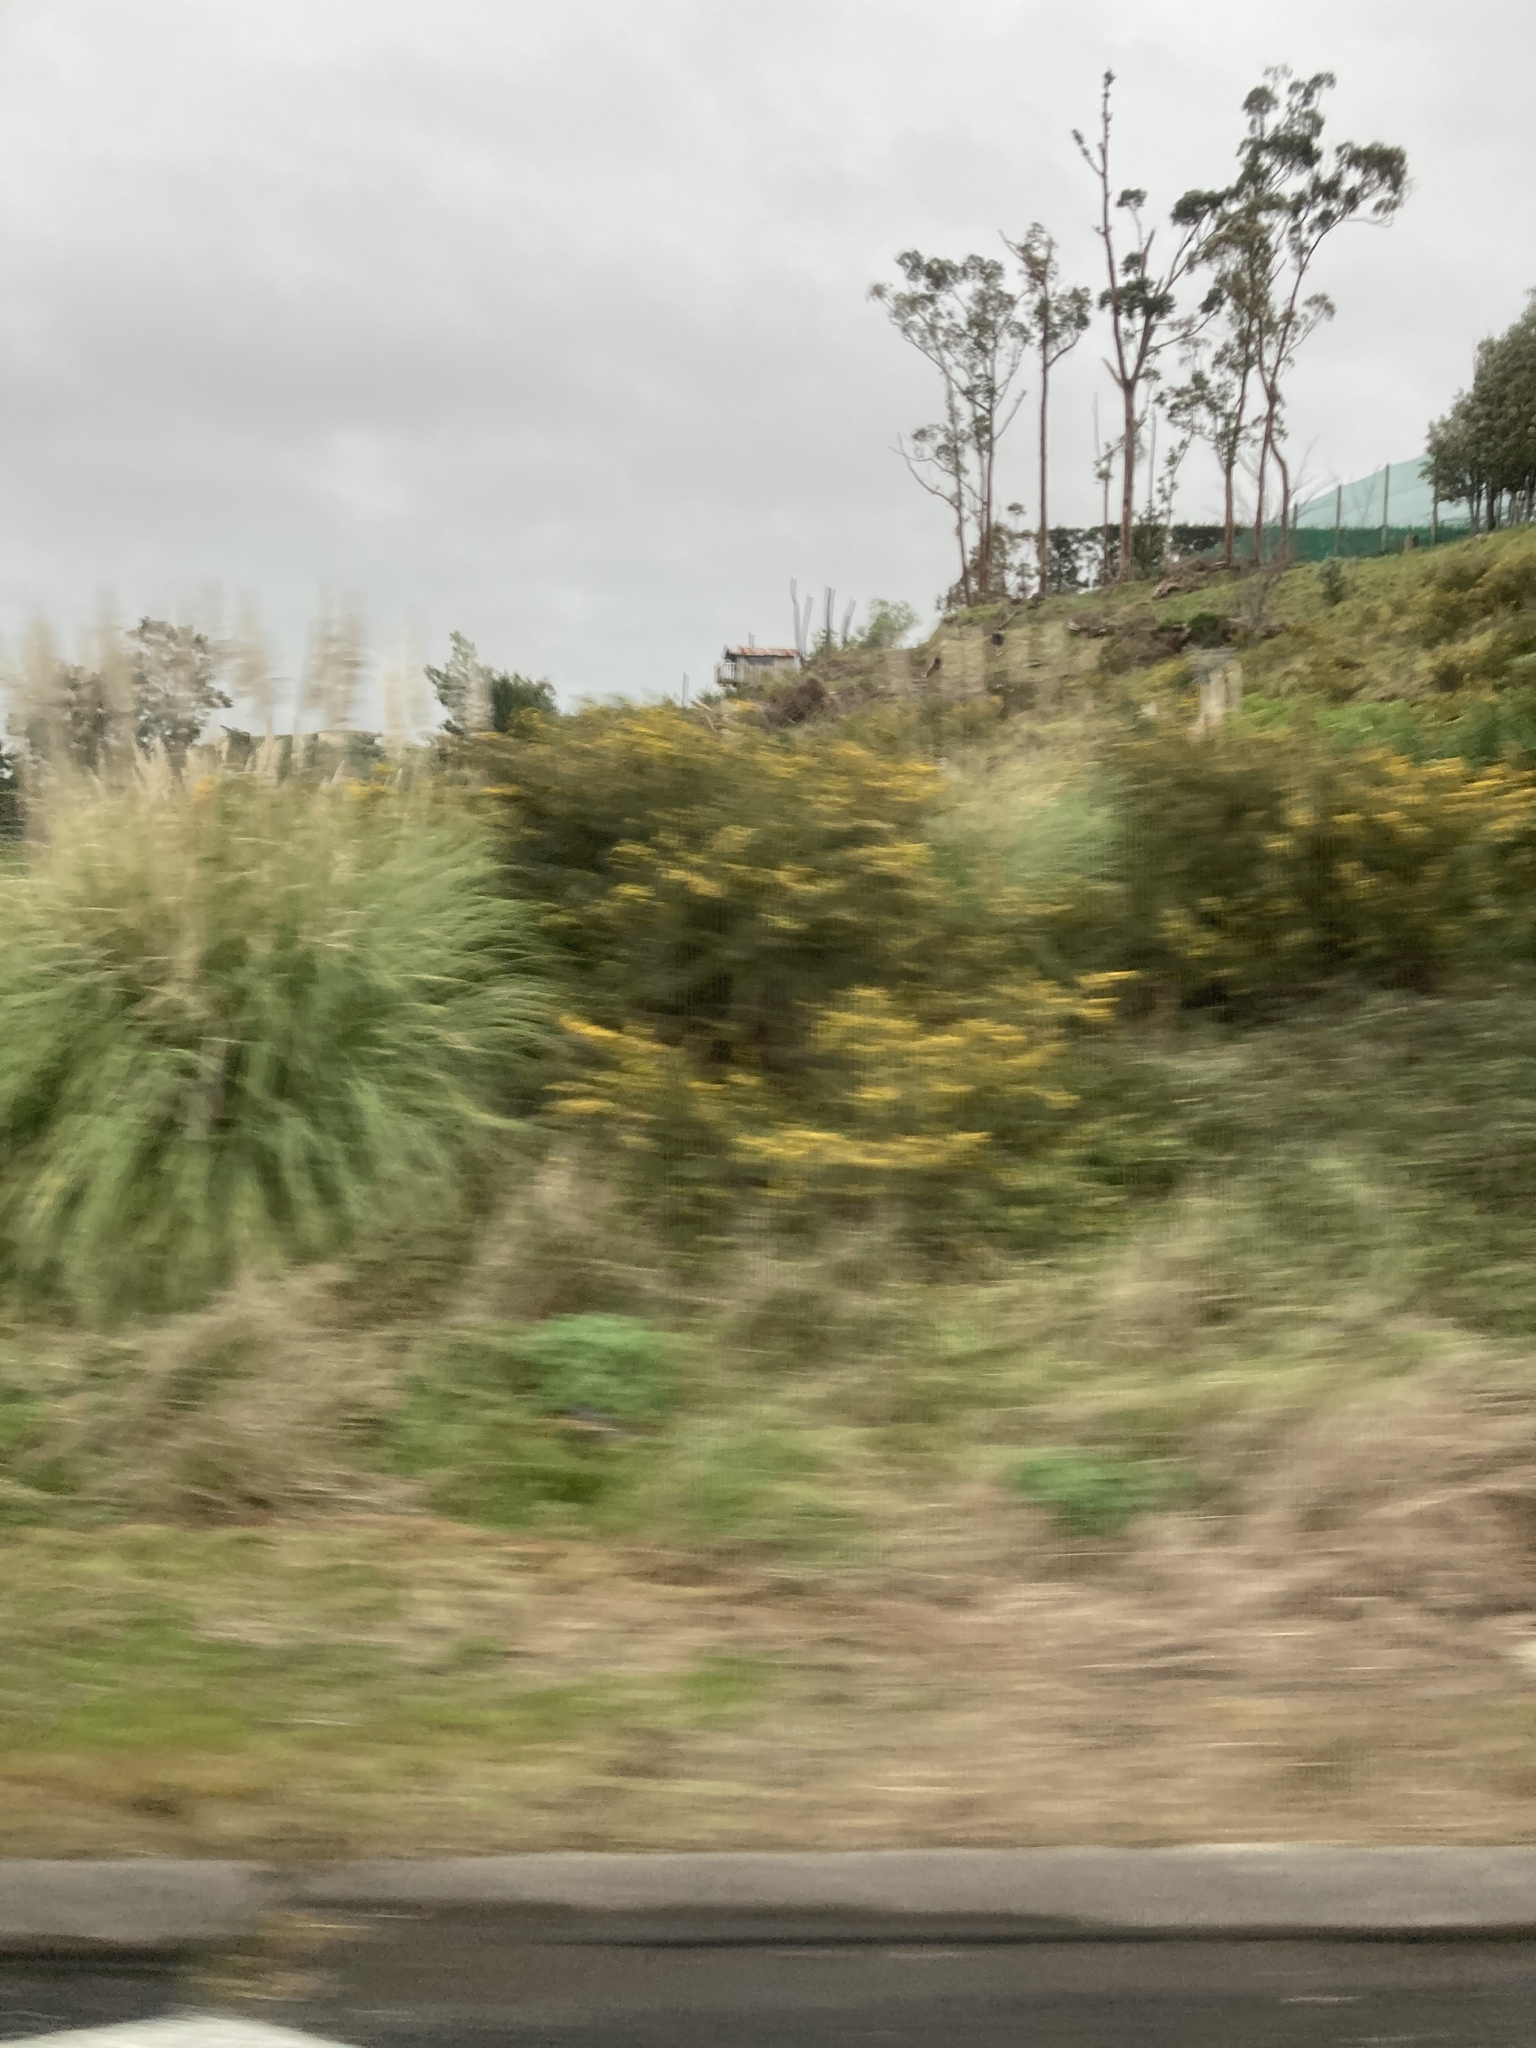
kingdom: Plantae
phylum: Tracheophyta
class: Magnoliopsida
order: Fabales
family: Fabaceae
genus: Ulex
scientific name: Ulex europaeus
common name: Common gorse
